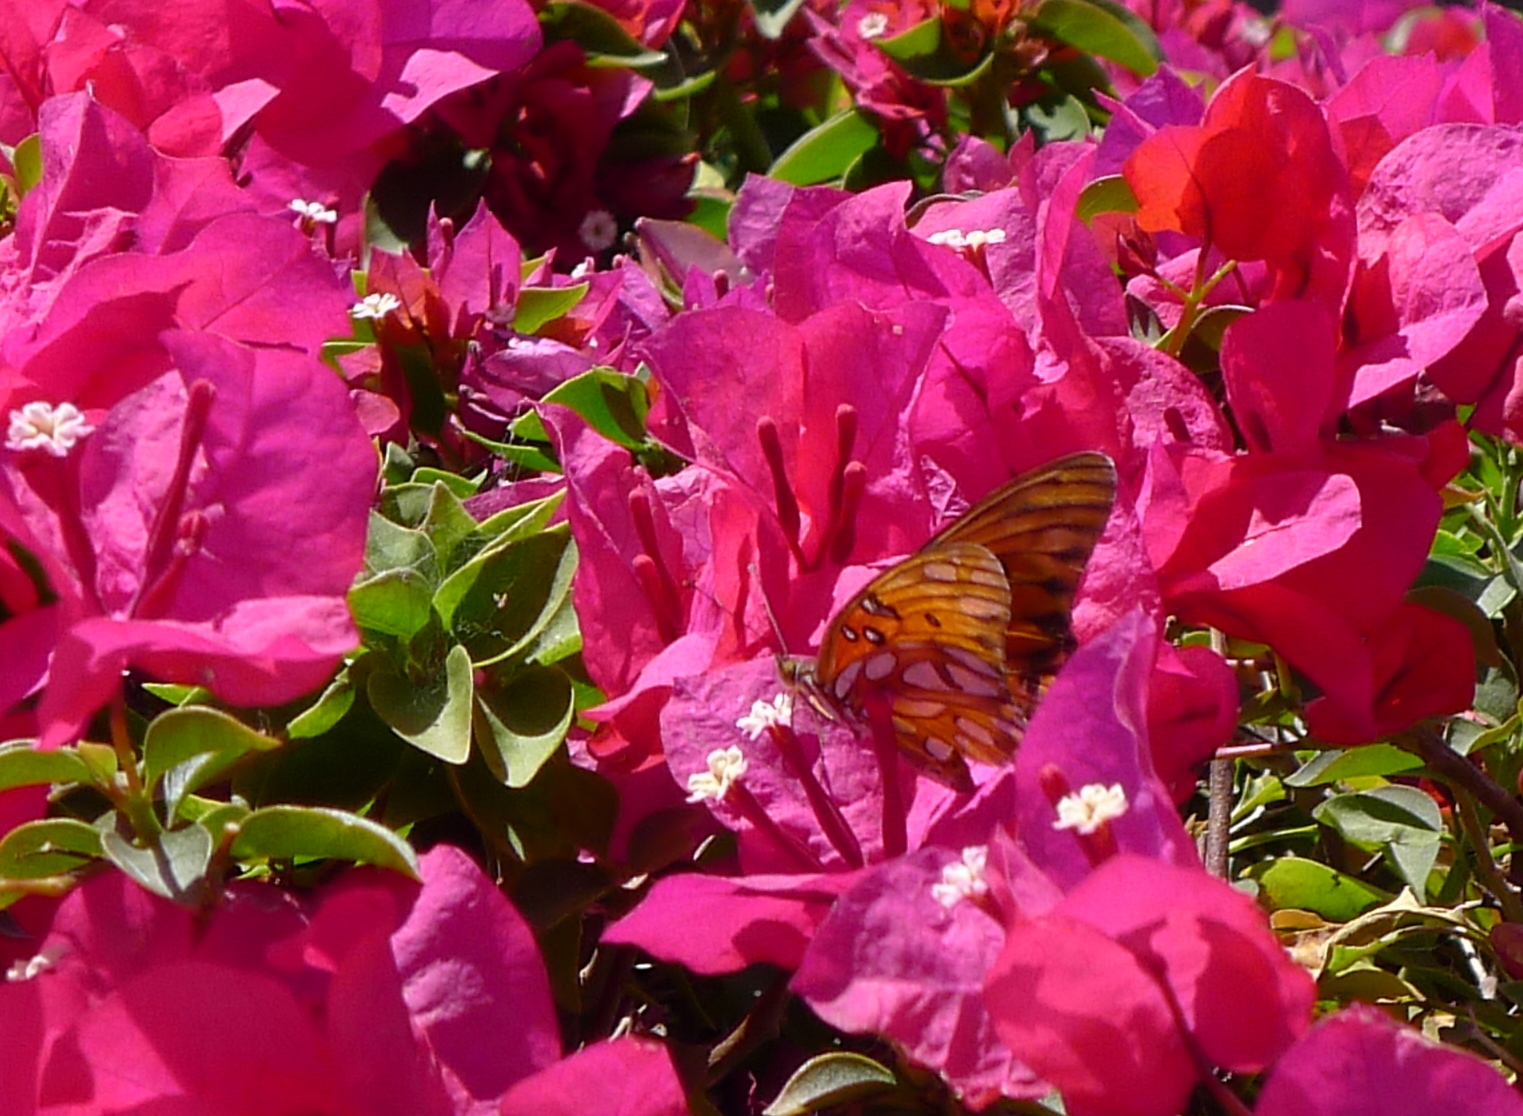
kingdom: Animalia
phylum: Arthropoda
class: Insecta
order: Lepidoptera
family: Nymphalidae
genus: Dione
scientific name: Dione vanillae
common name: Gulf fritillary
